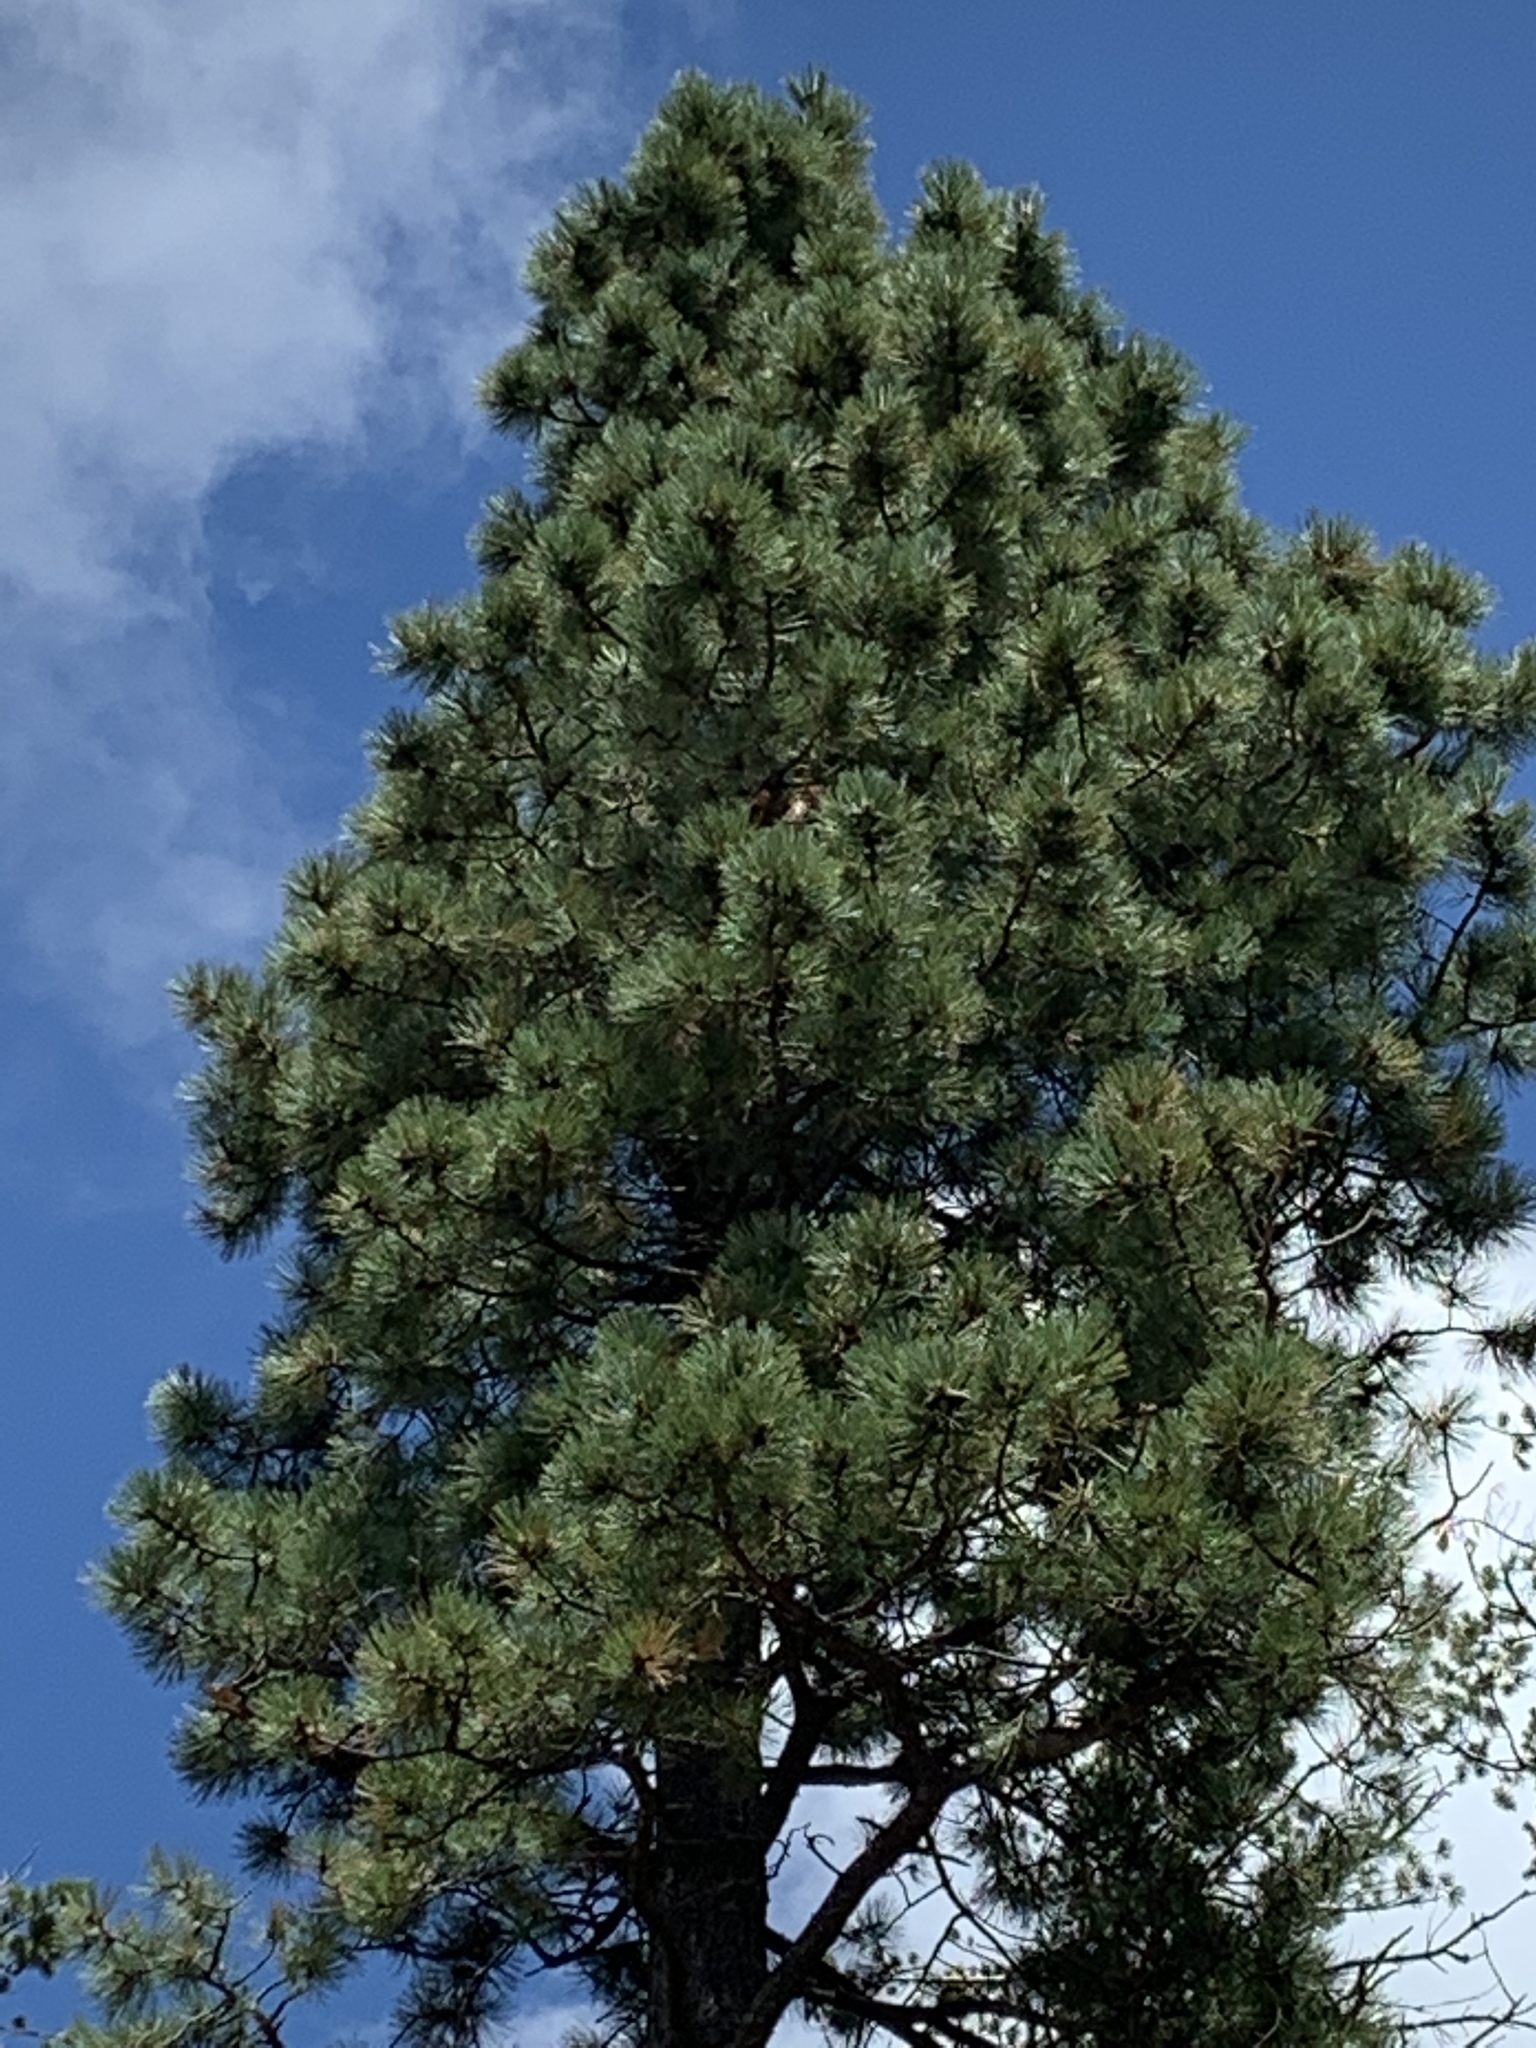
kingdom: Plantae
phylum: Tracheophyta
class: Pinopsida
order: Pinales
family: Pinaceae
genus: Pinus
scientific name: Pinus ponderosa
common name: Western yellow-pine
